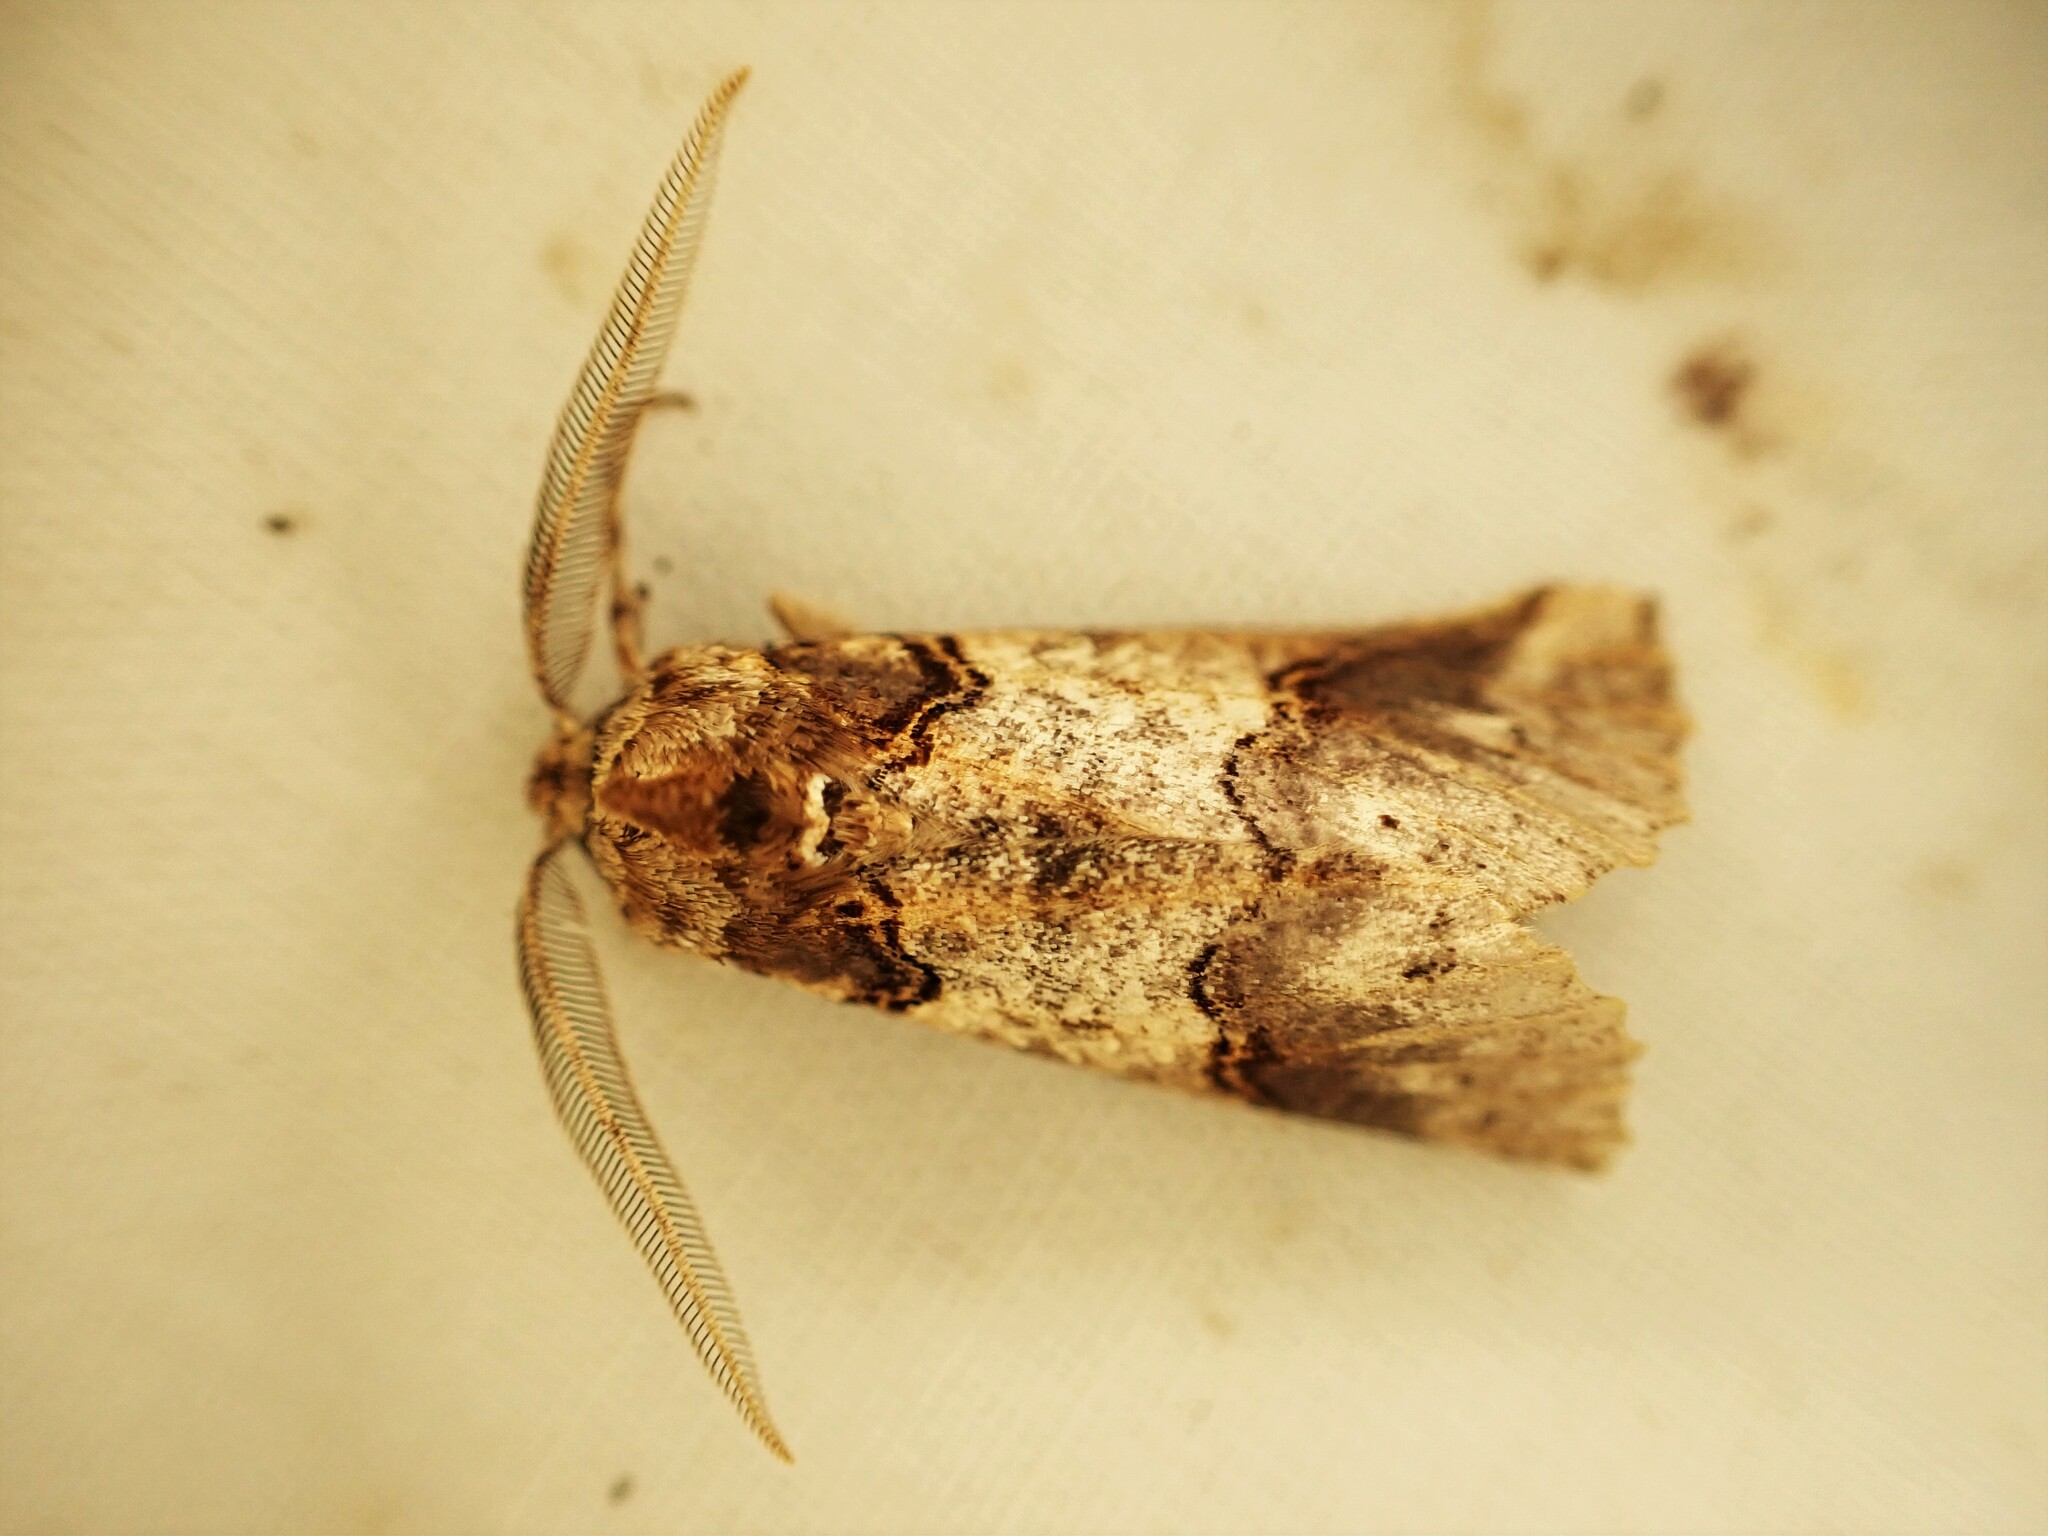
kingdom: Animalia
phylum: Arthropoda
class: Insecta
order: Lepidoptera
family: Geometridae
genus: Declana
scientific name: Declana
